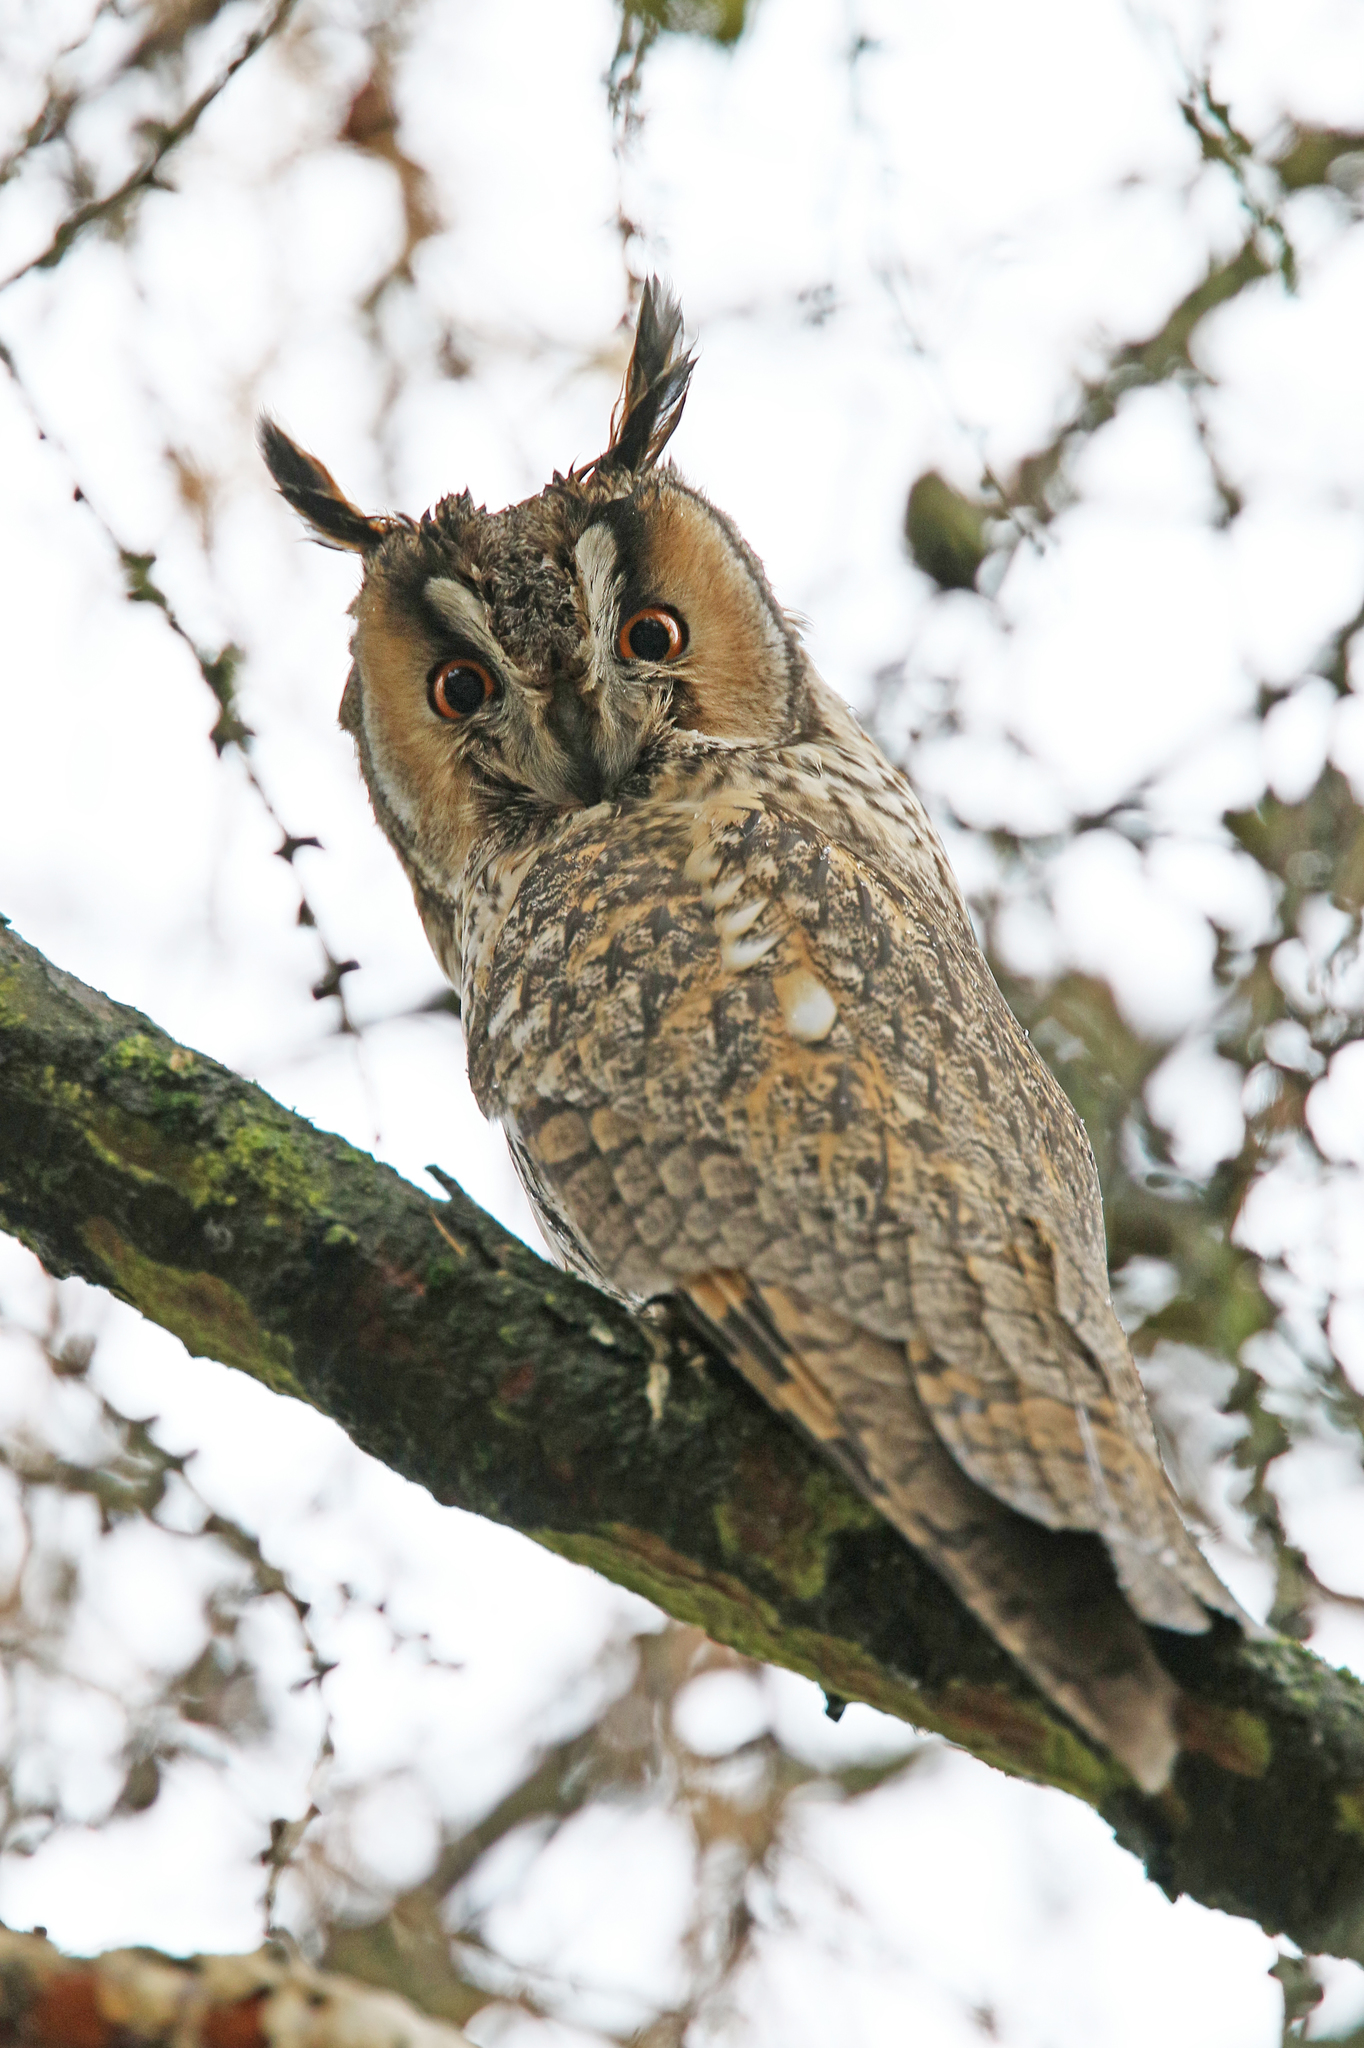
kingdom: Animalia
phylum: Chordata
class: Aves
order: Strigiformes
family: Strigidae
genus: Asio
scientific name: Asio otus
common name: Long-eared owl
